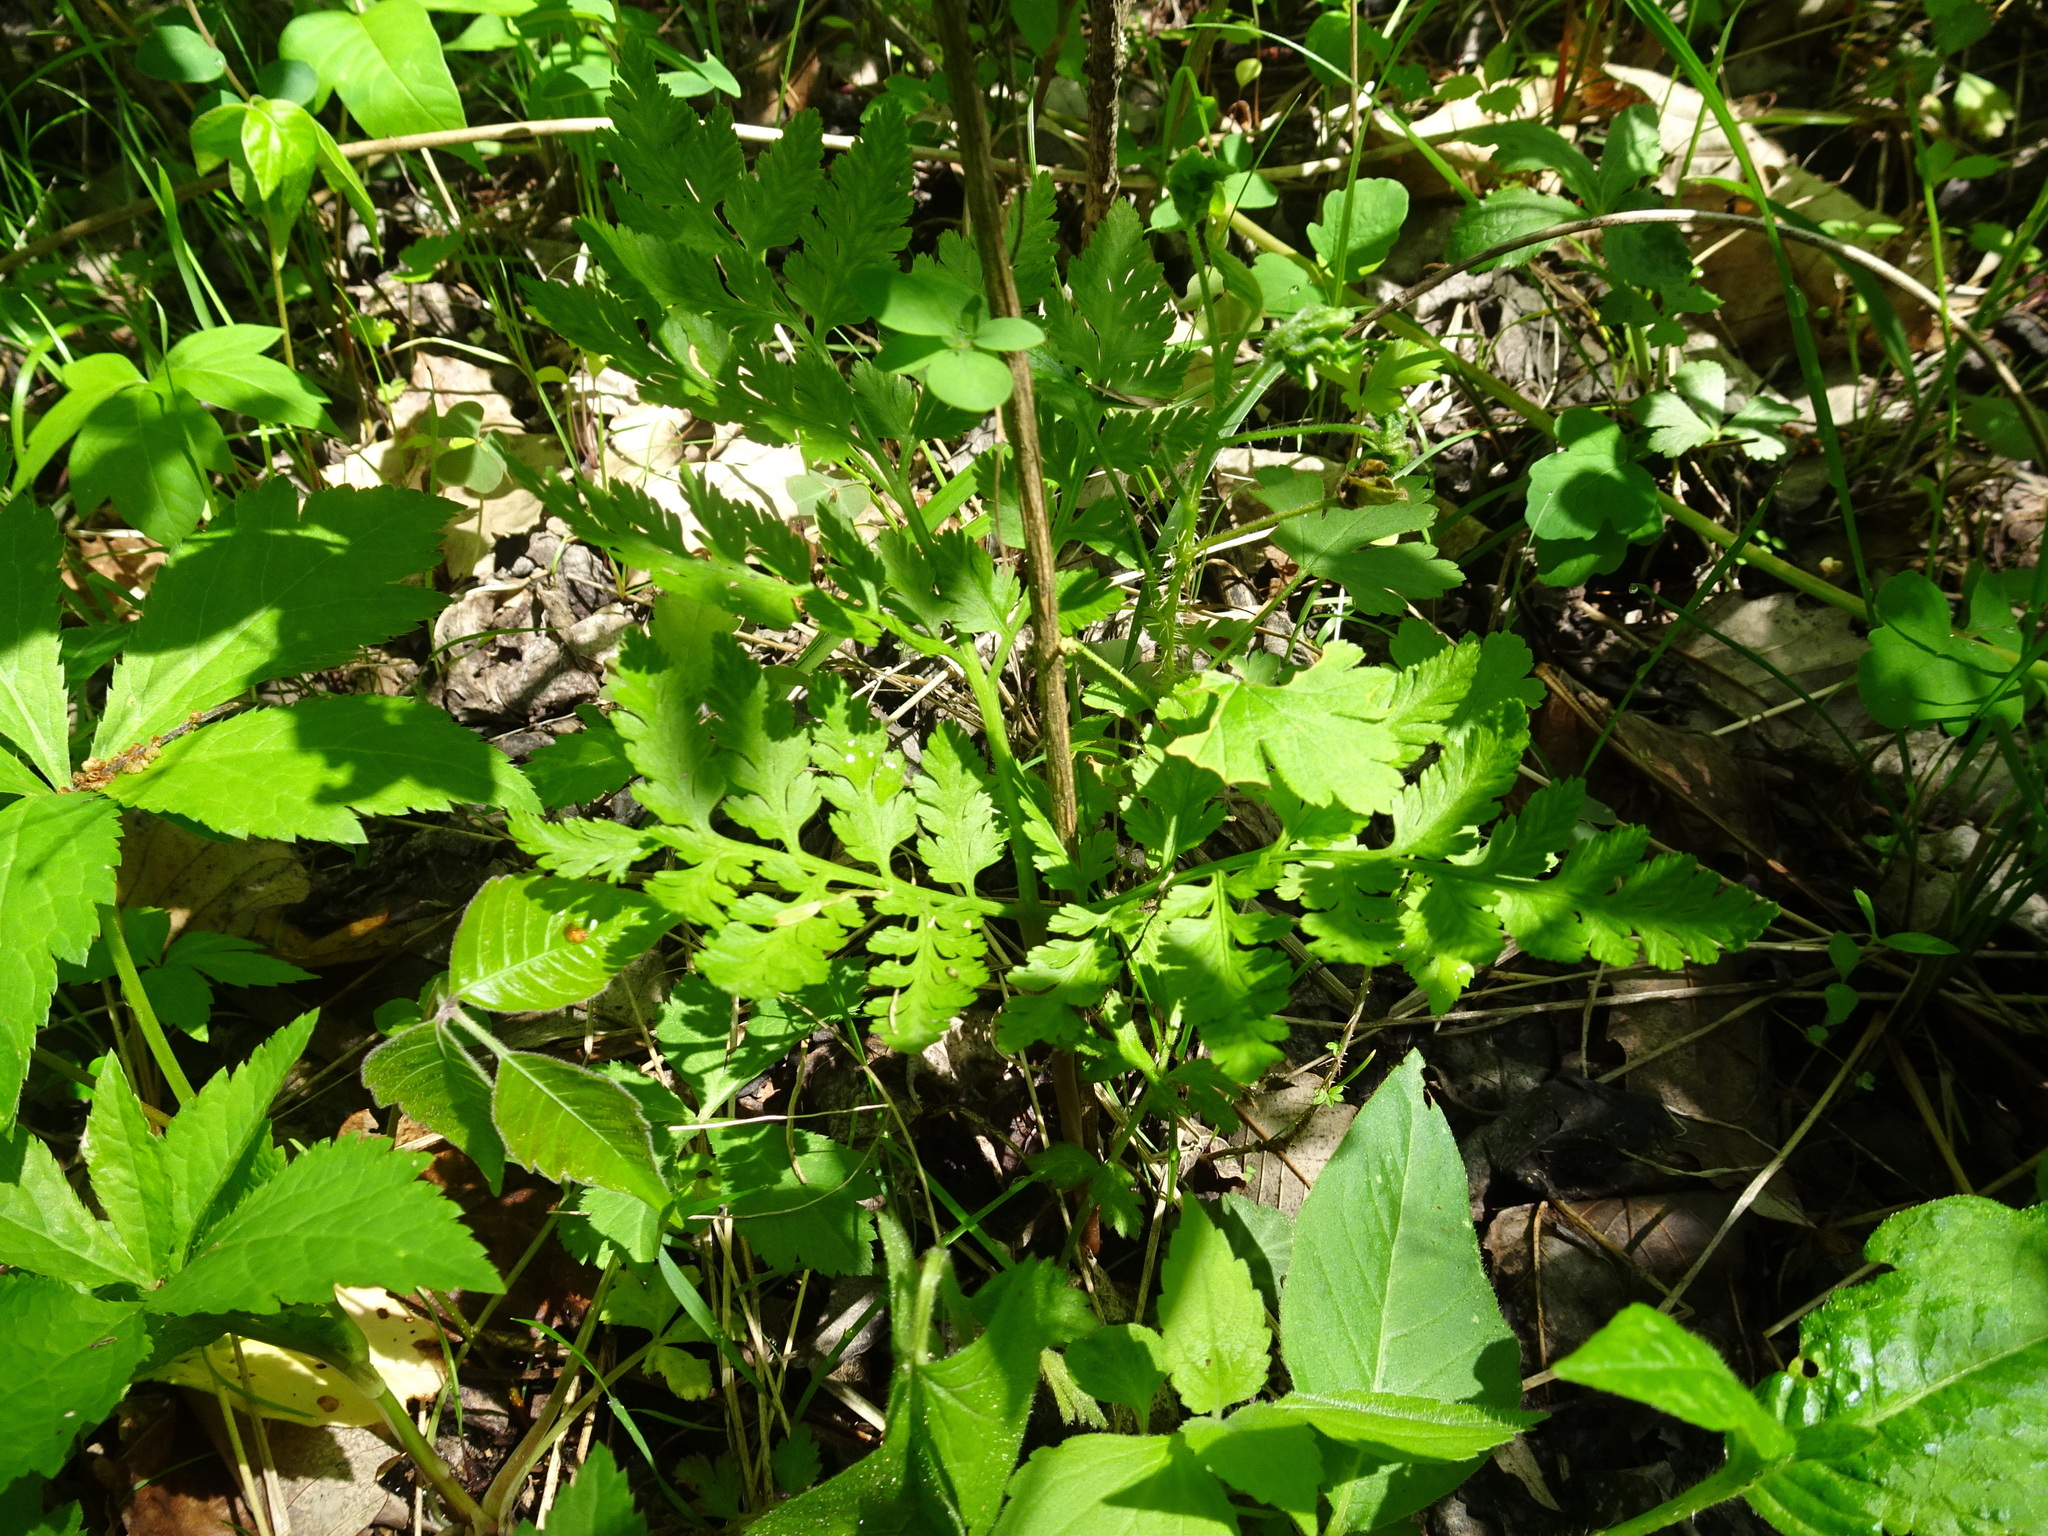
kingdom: Plantae
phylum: Tracheophyta
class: Polypodiopsida
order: Ophioglossales
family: Ophioglossaceae
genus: Botrypus
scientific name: Botrypus virginianus
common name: Common grapefern
